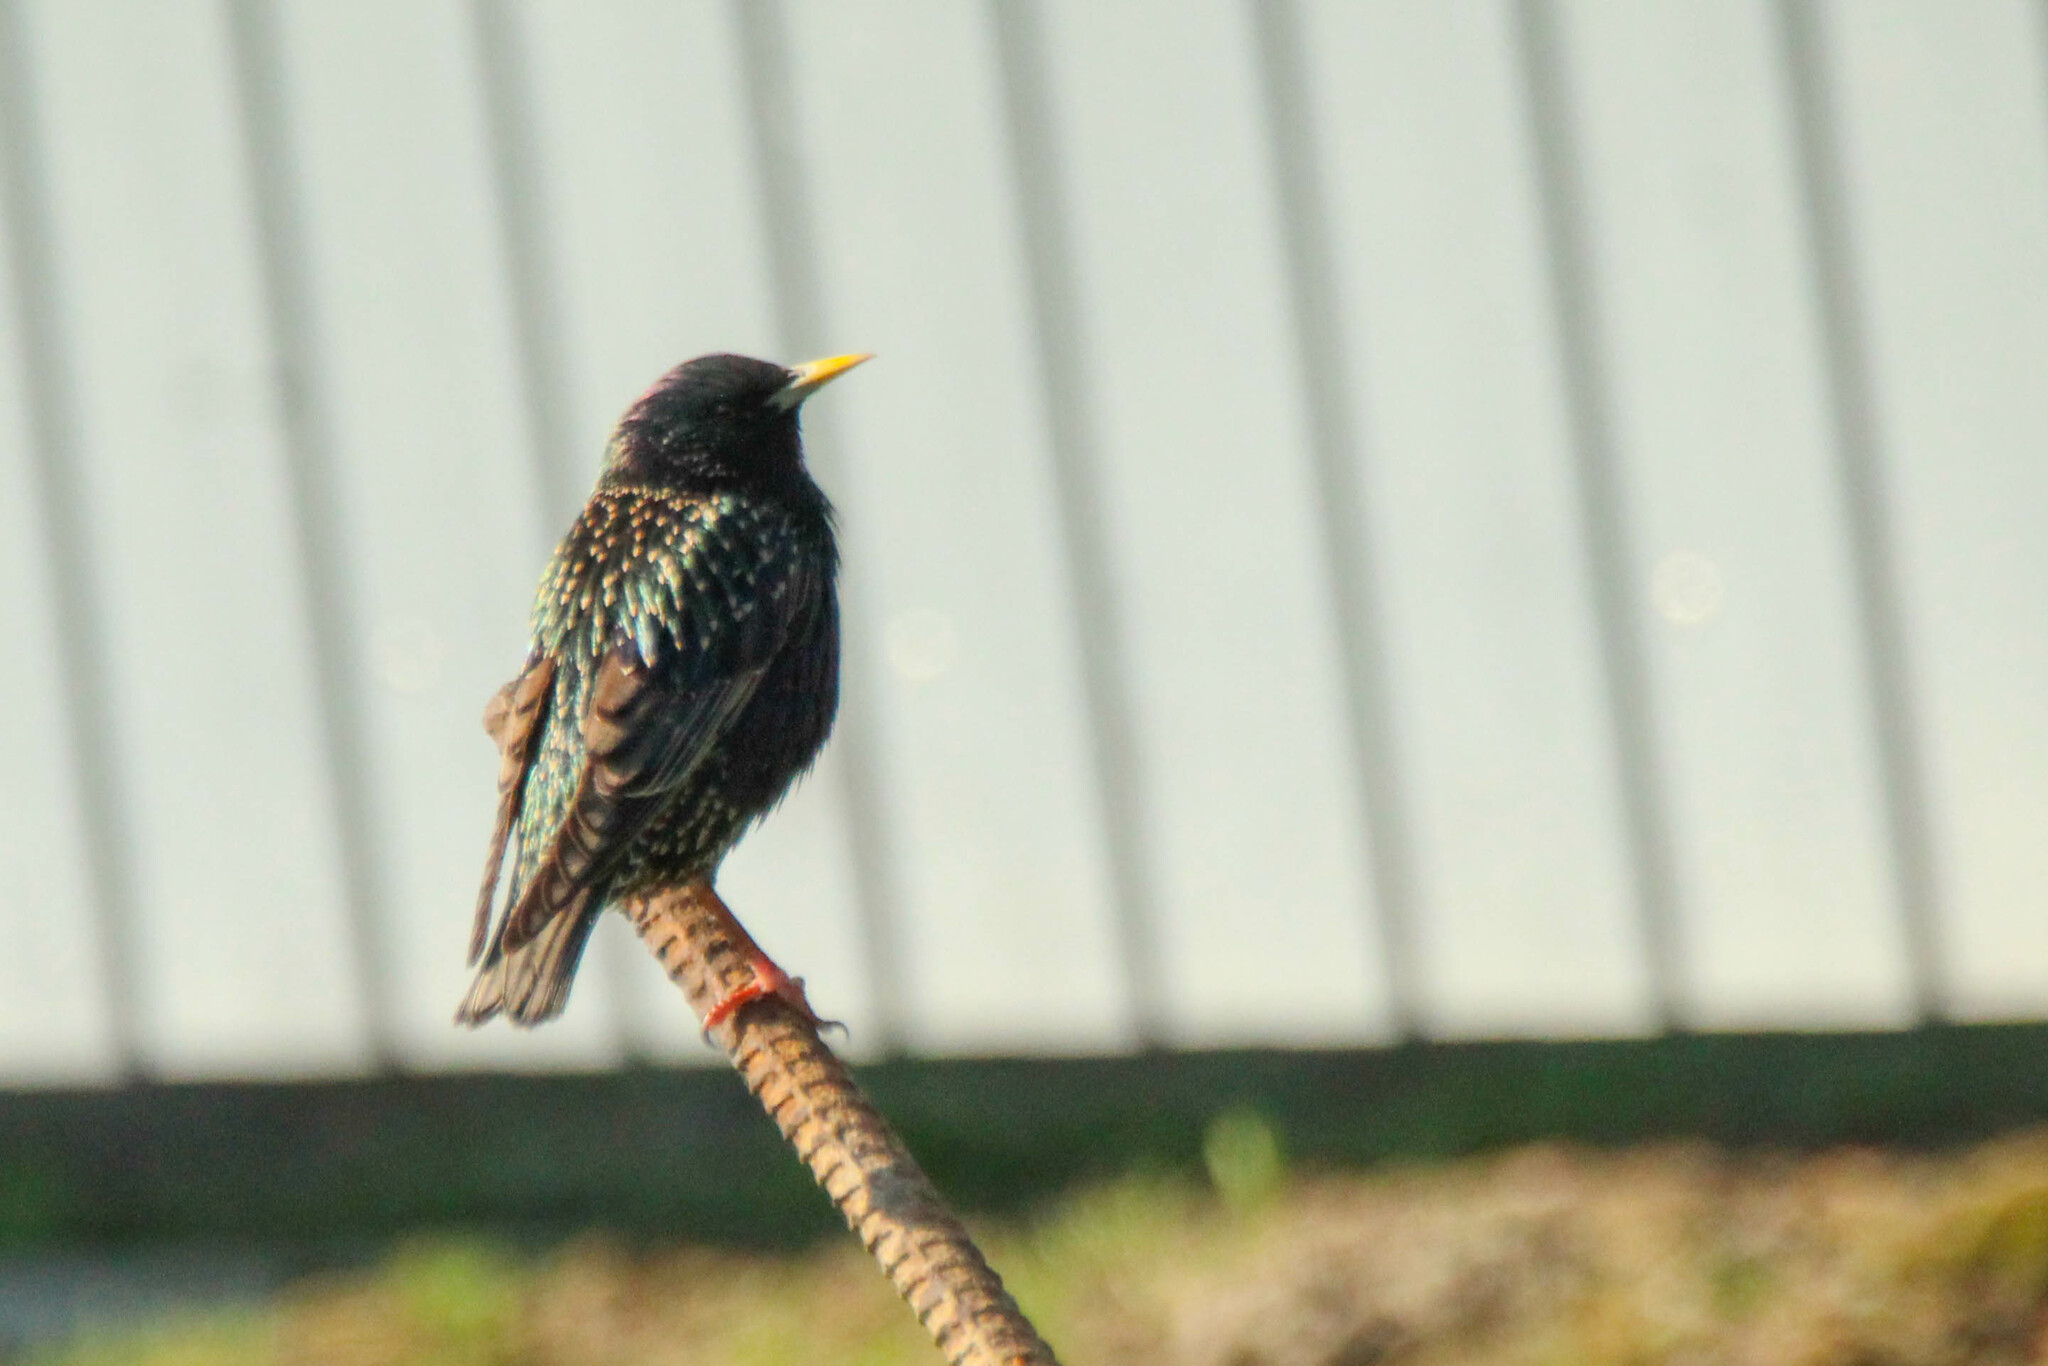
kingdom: Animalia
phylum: Chordata
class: Aves
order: Passeriformes
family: Sturnidae
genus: Sturnus
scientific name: Sturnus vulgaris
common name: Common starling
